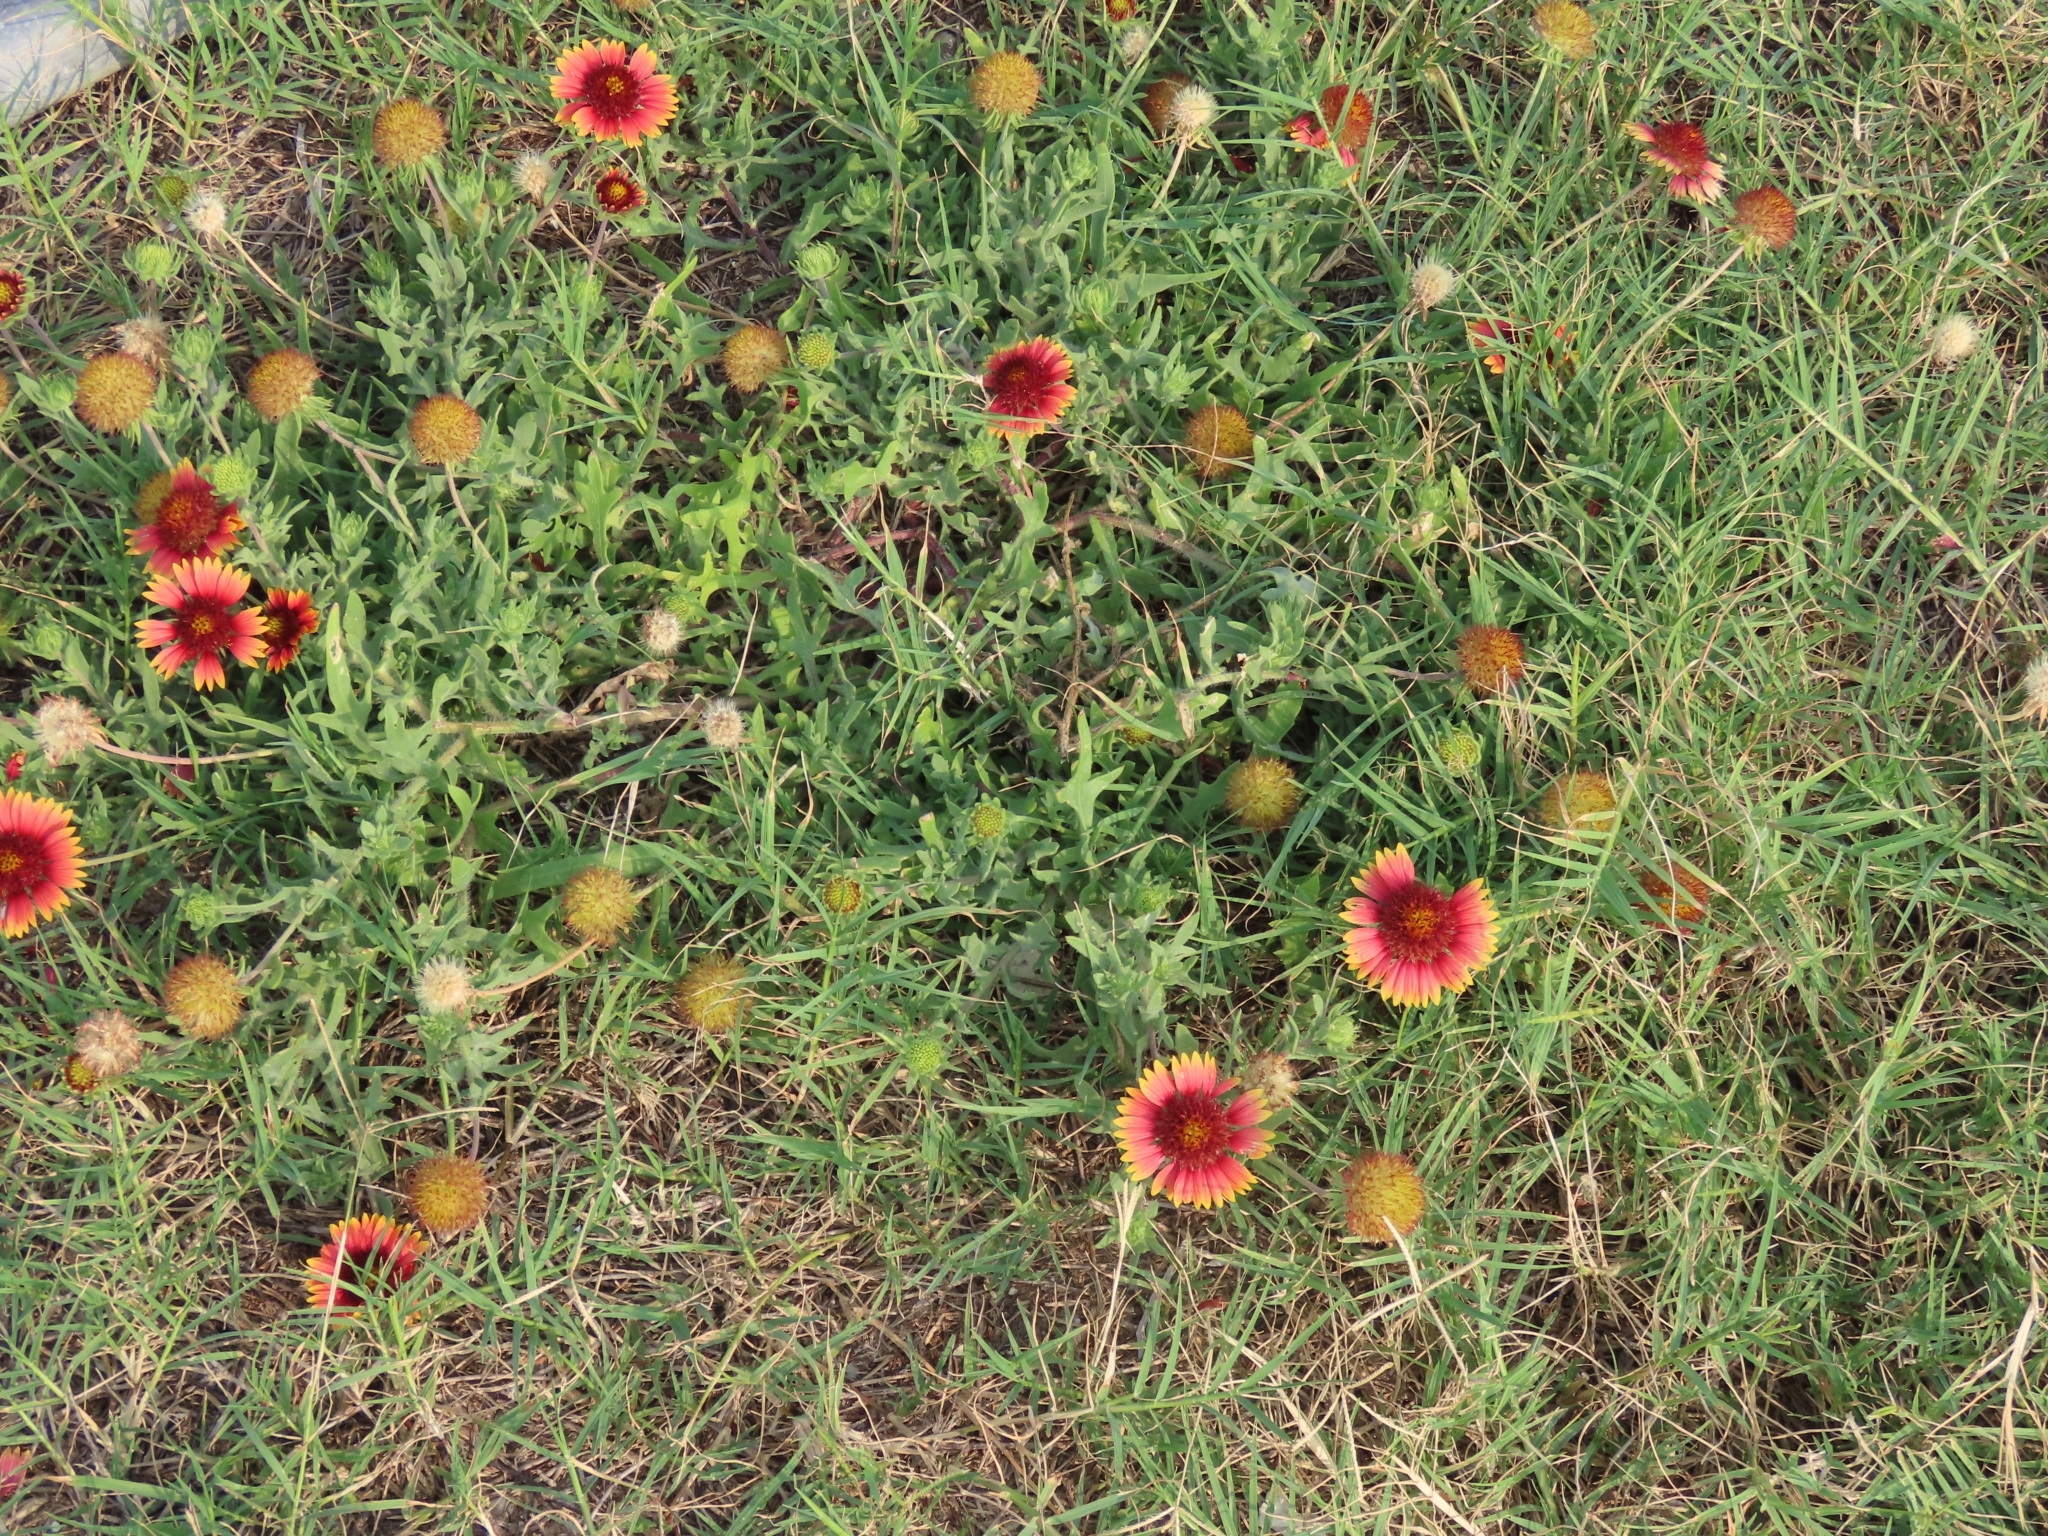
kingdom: Plantae
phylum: Tracheophyta
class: Magnoliopsida
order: Asterales
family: Asteraceae
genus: Gaillardia
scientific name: Gaillardia pulchella
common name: Firewheel
